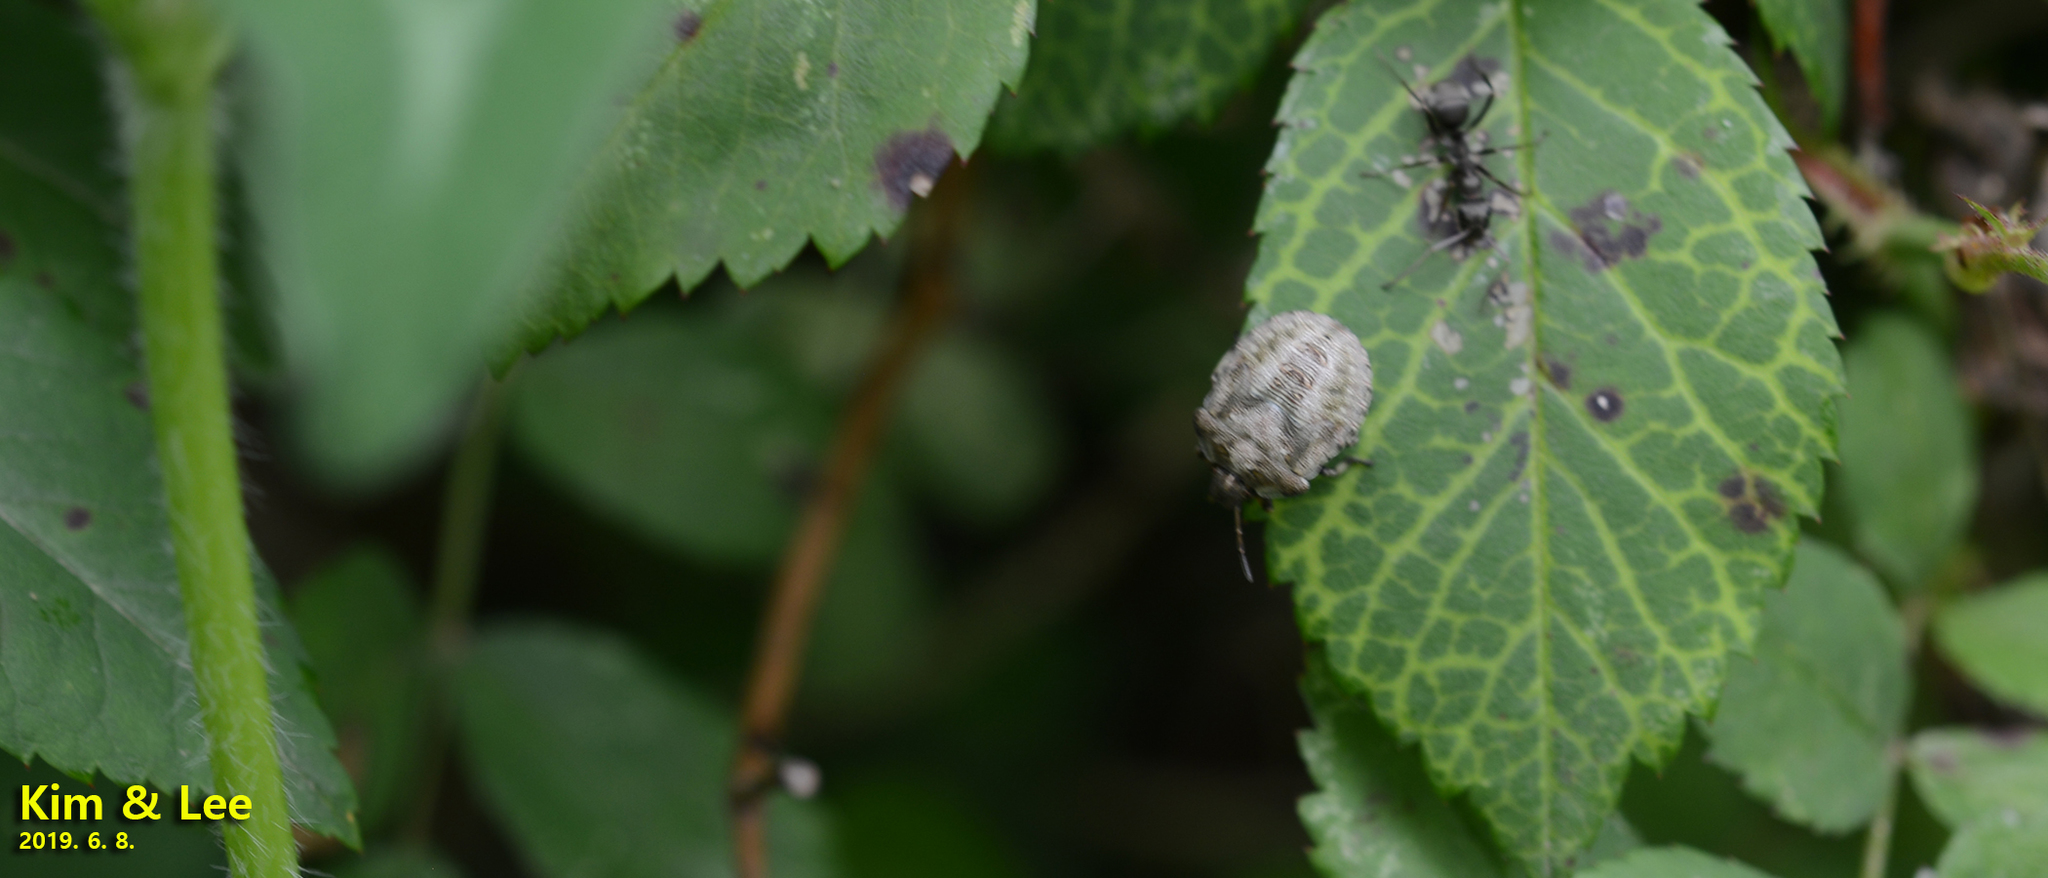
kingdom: Animalia
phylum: Arthropoda
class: Insecta
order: Hemiptera
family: Pentatomidae
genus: Carbula
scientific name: Carbula putoni
